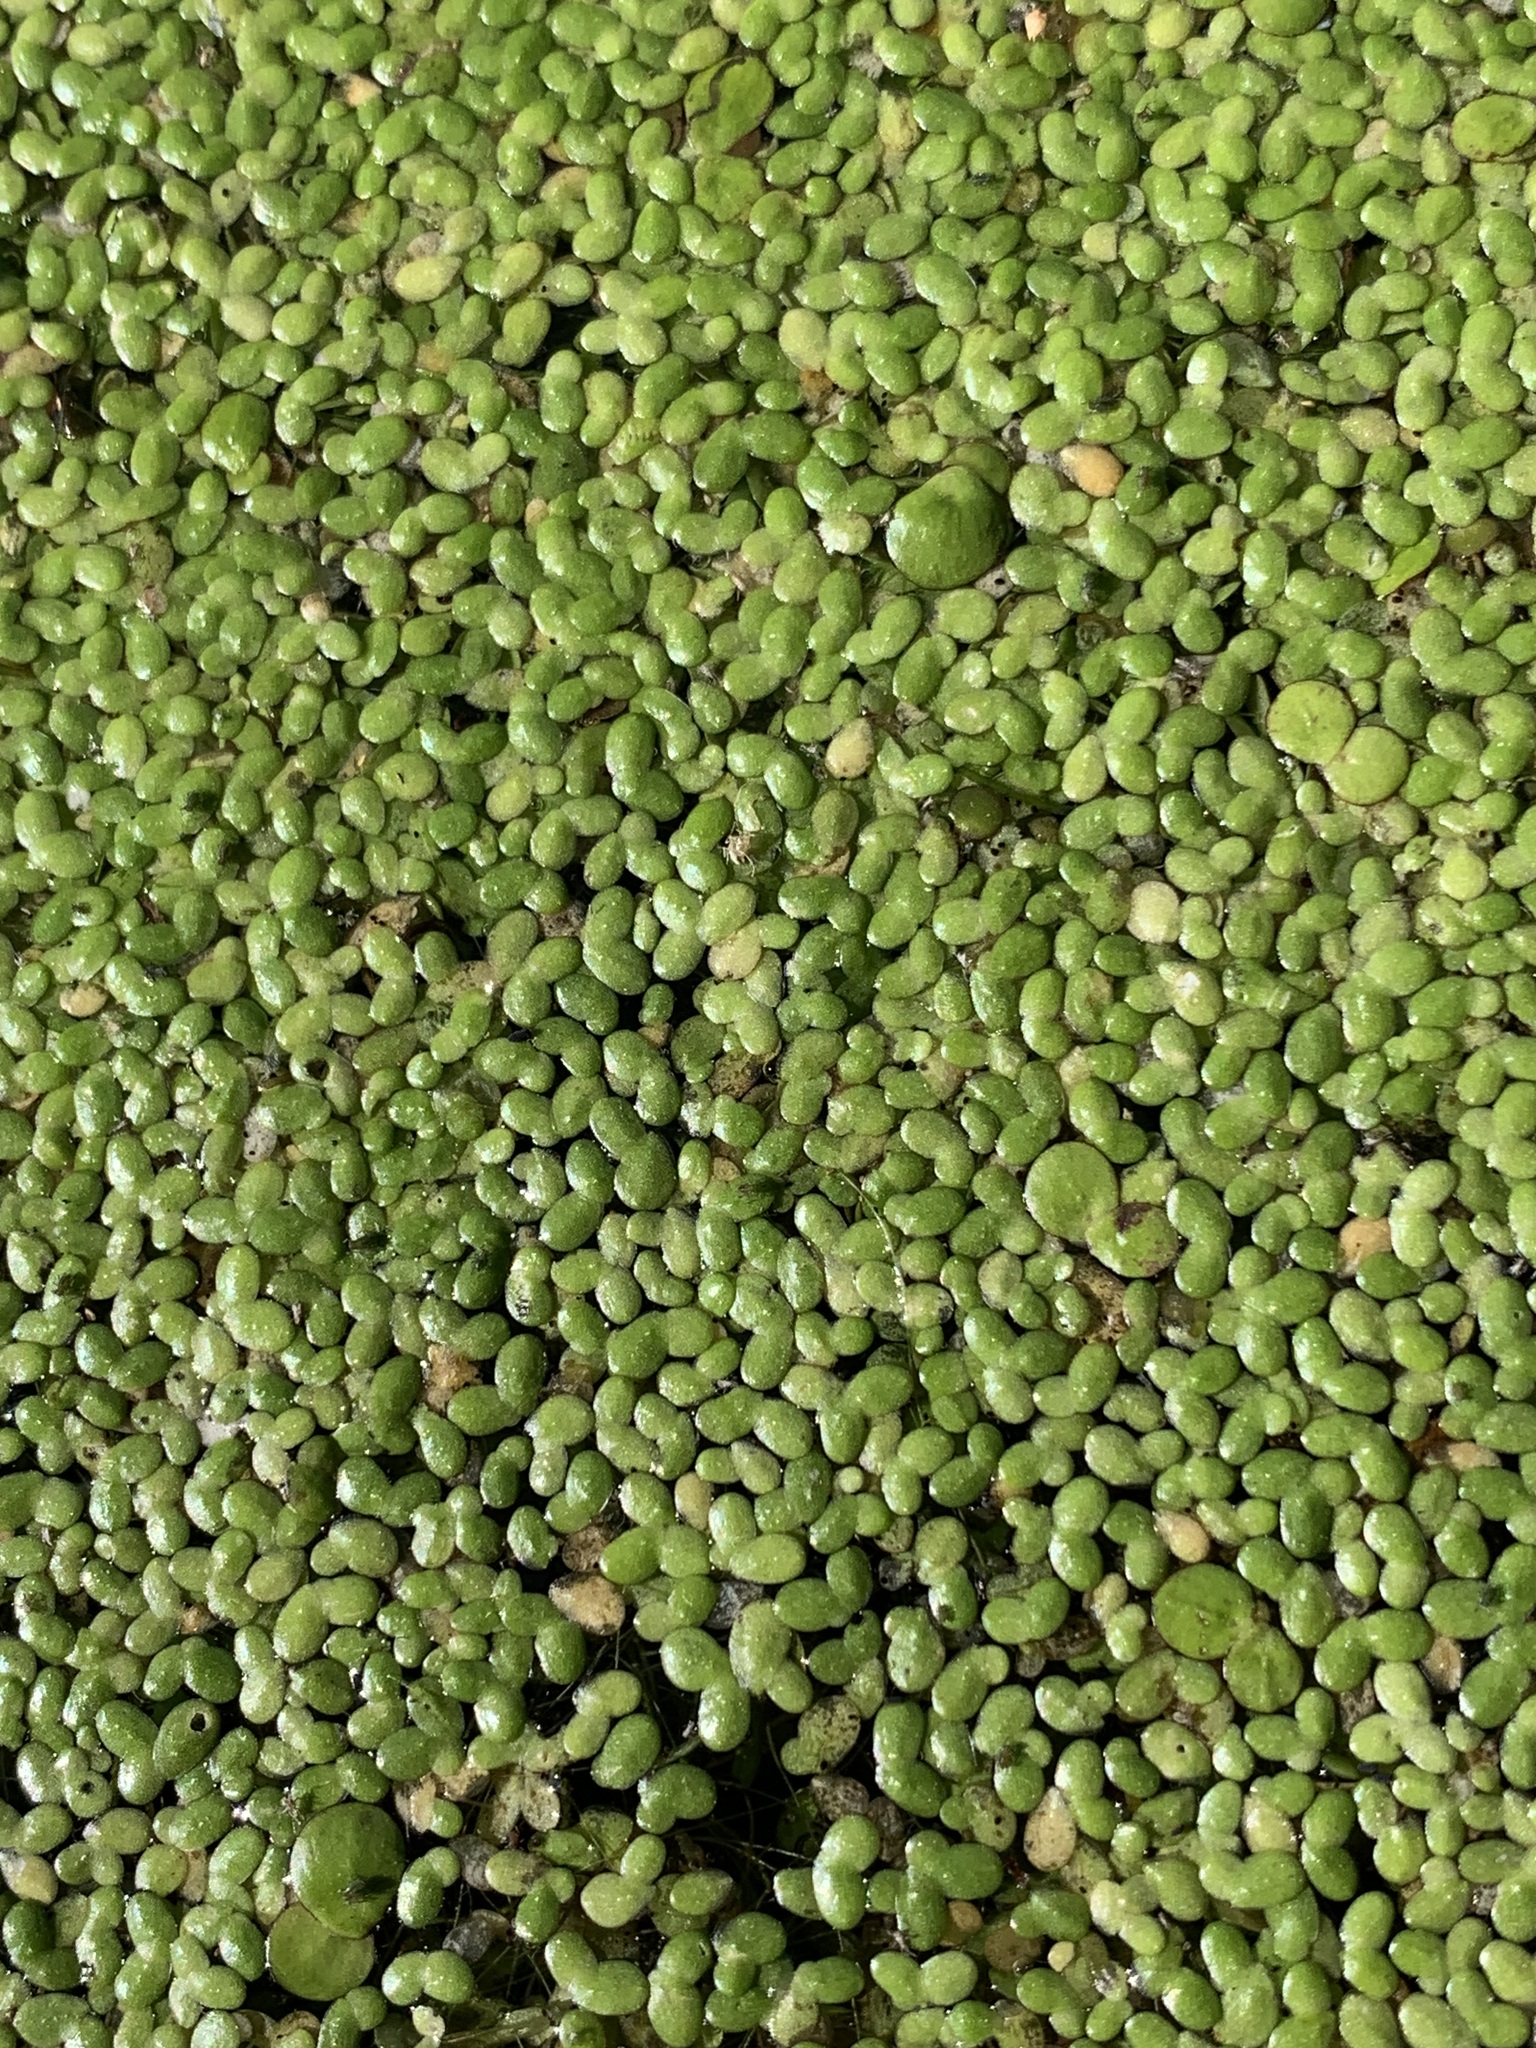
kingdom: Plantae
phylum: Tracheophyta
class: Liliopsida
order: Alismatales
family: Araceae
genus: Lemna
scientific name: Lemna turionifera
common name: Perennial duckweed
